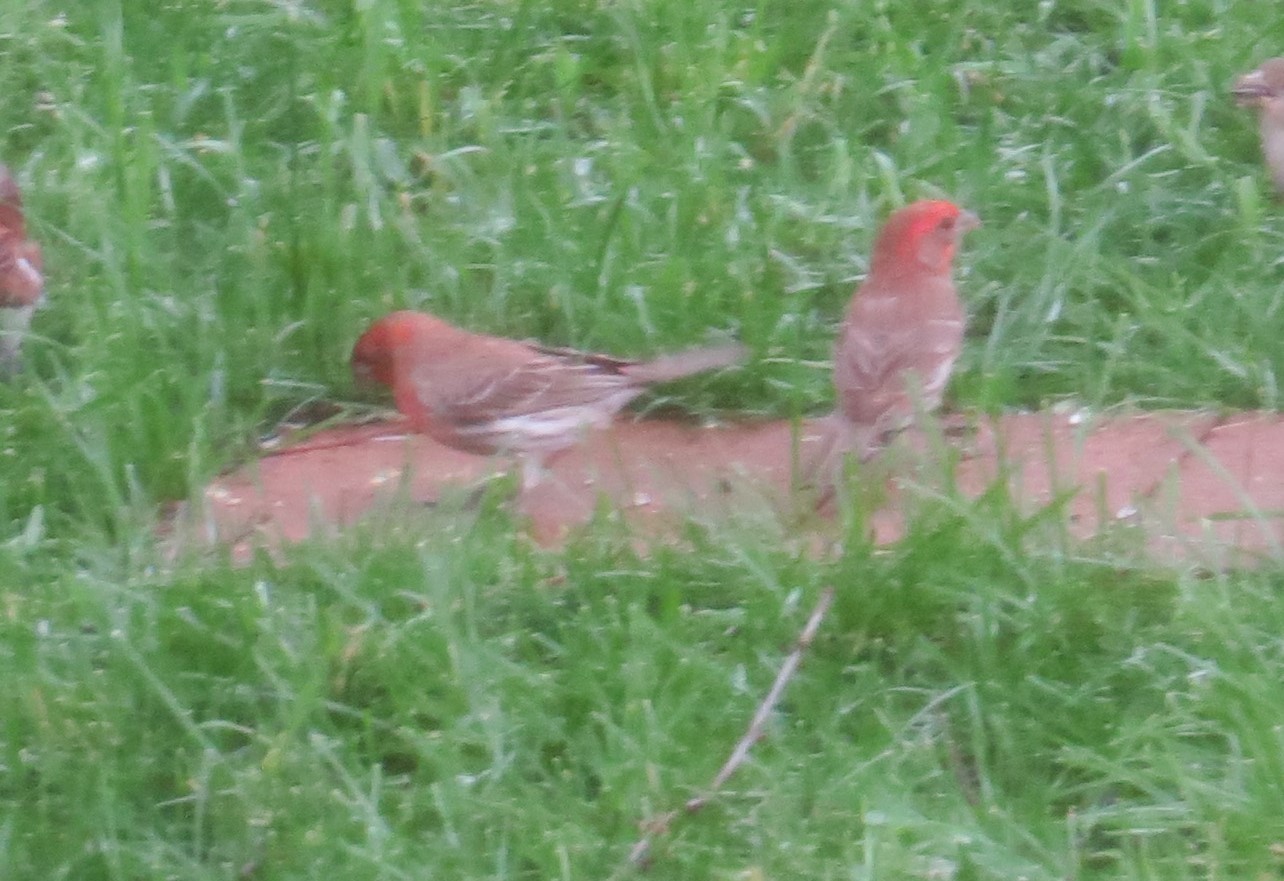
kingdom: Animalia
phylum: Chordata
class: Aves
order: Passeriformes
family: Fringillidae
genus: Haemorhous
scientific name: Haemorhous mexicanus
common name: House finch
